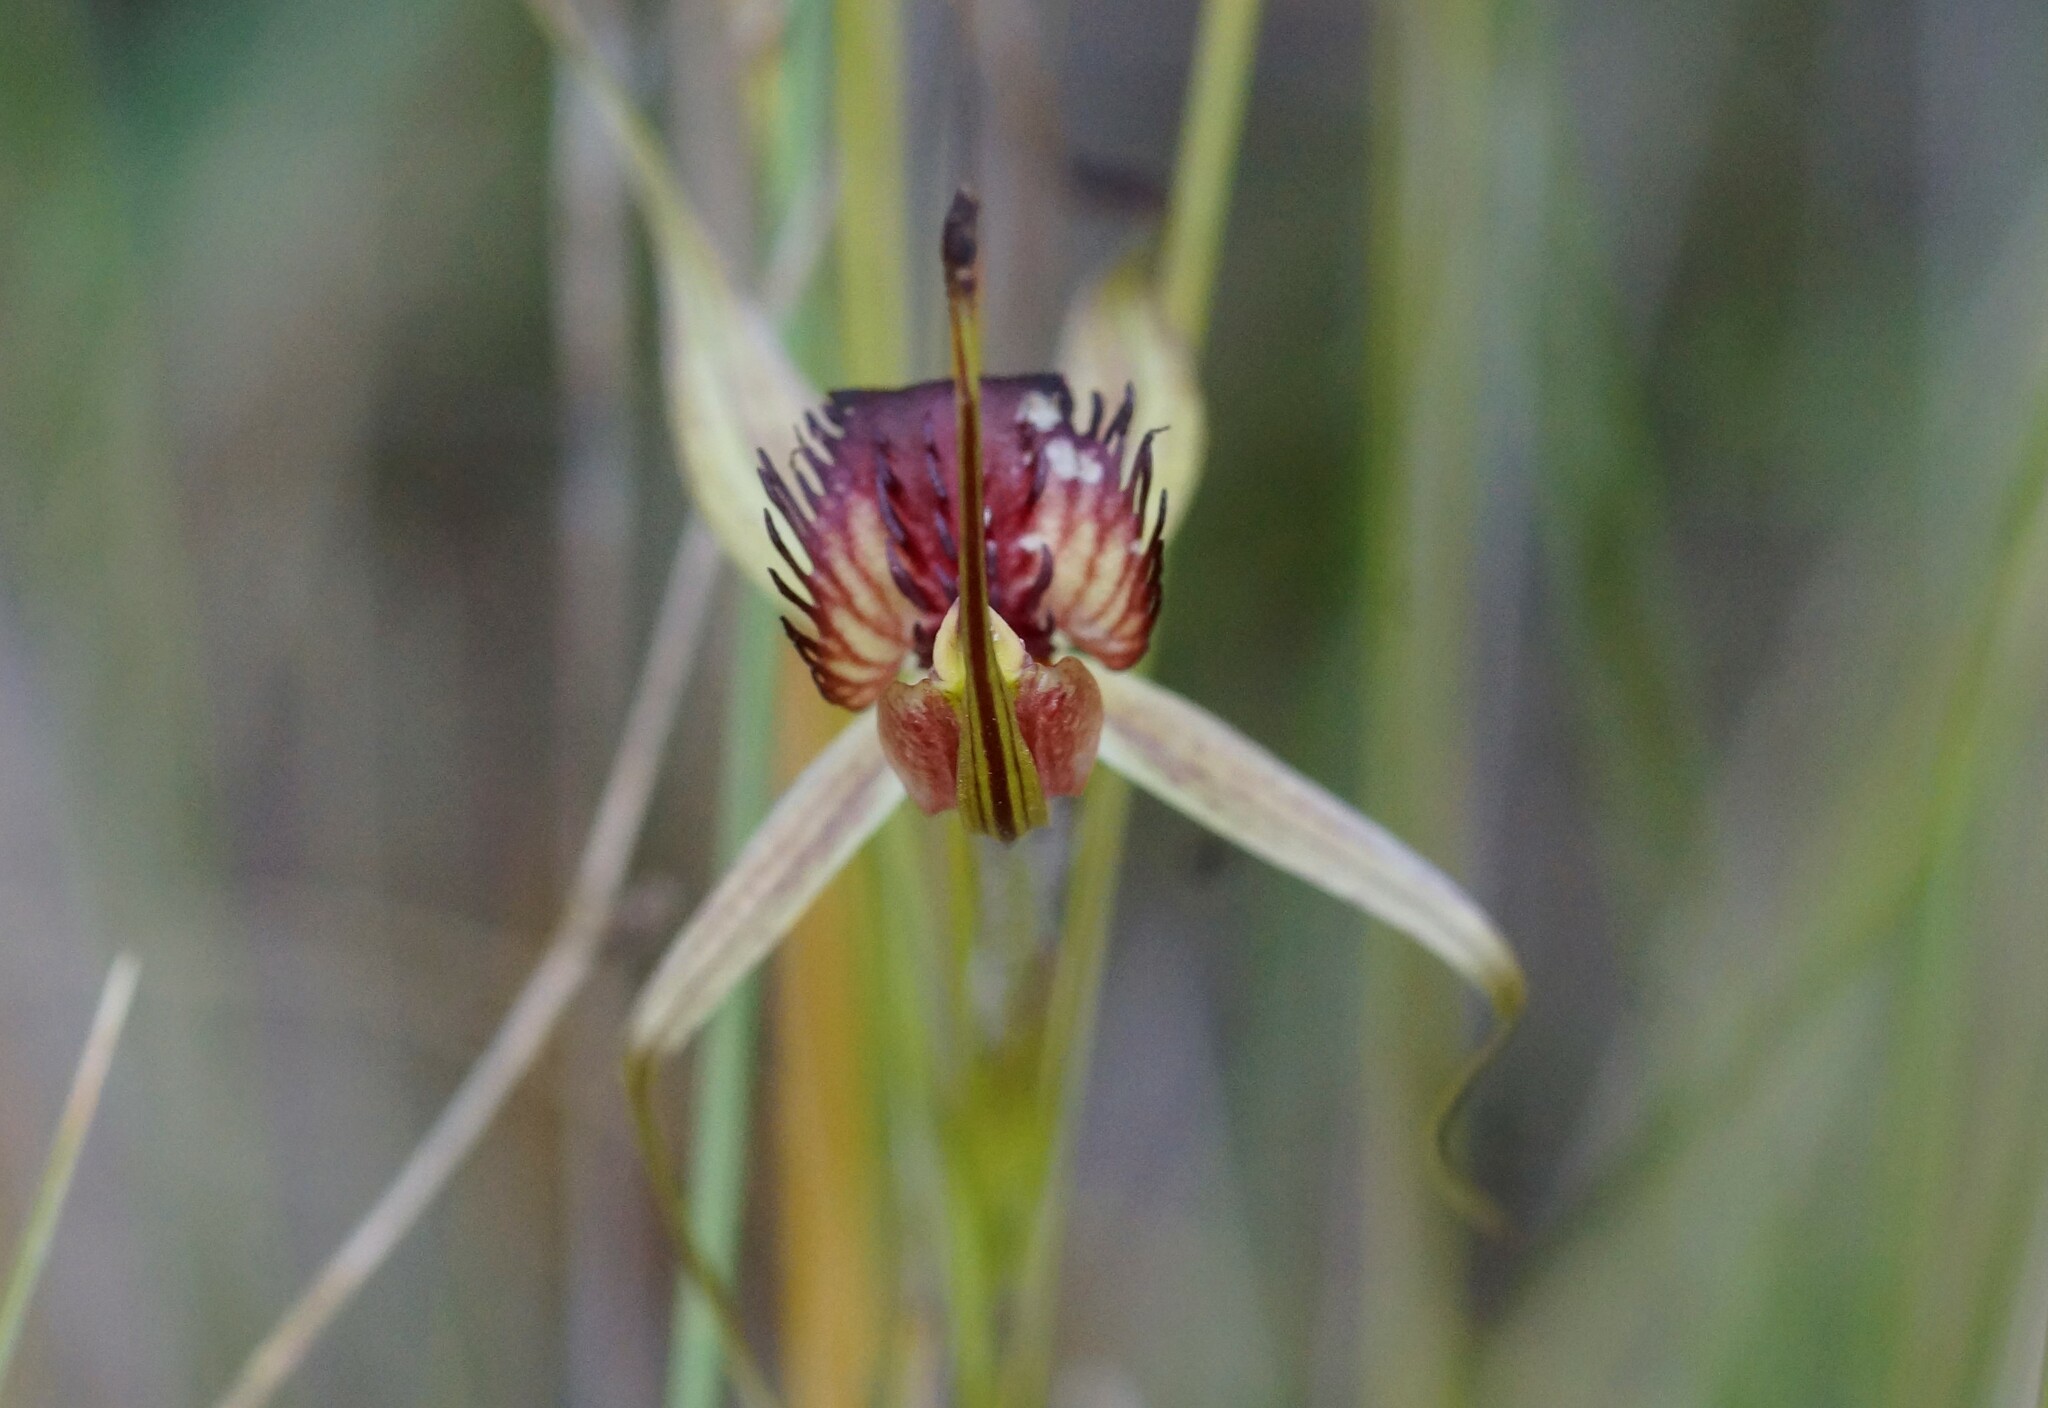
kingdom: Plantae
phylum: Tracheophyta
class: Liliopsida
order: Asparagales
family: Orchidaceae
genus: Caladenia
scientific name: Caladenia australis
